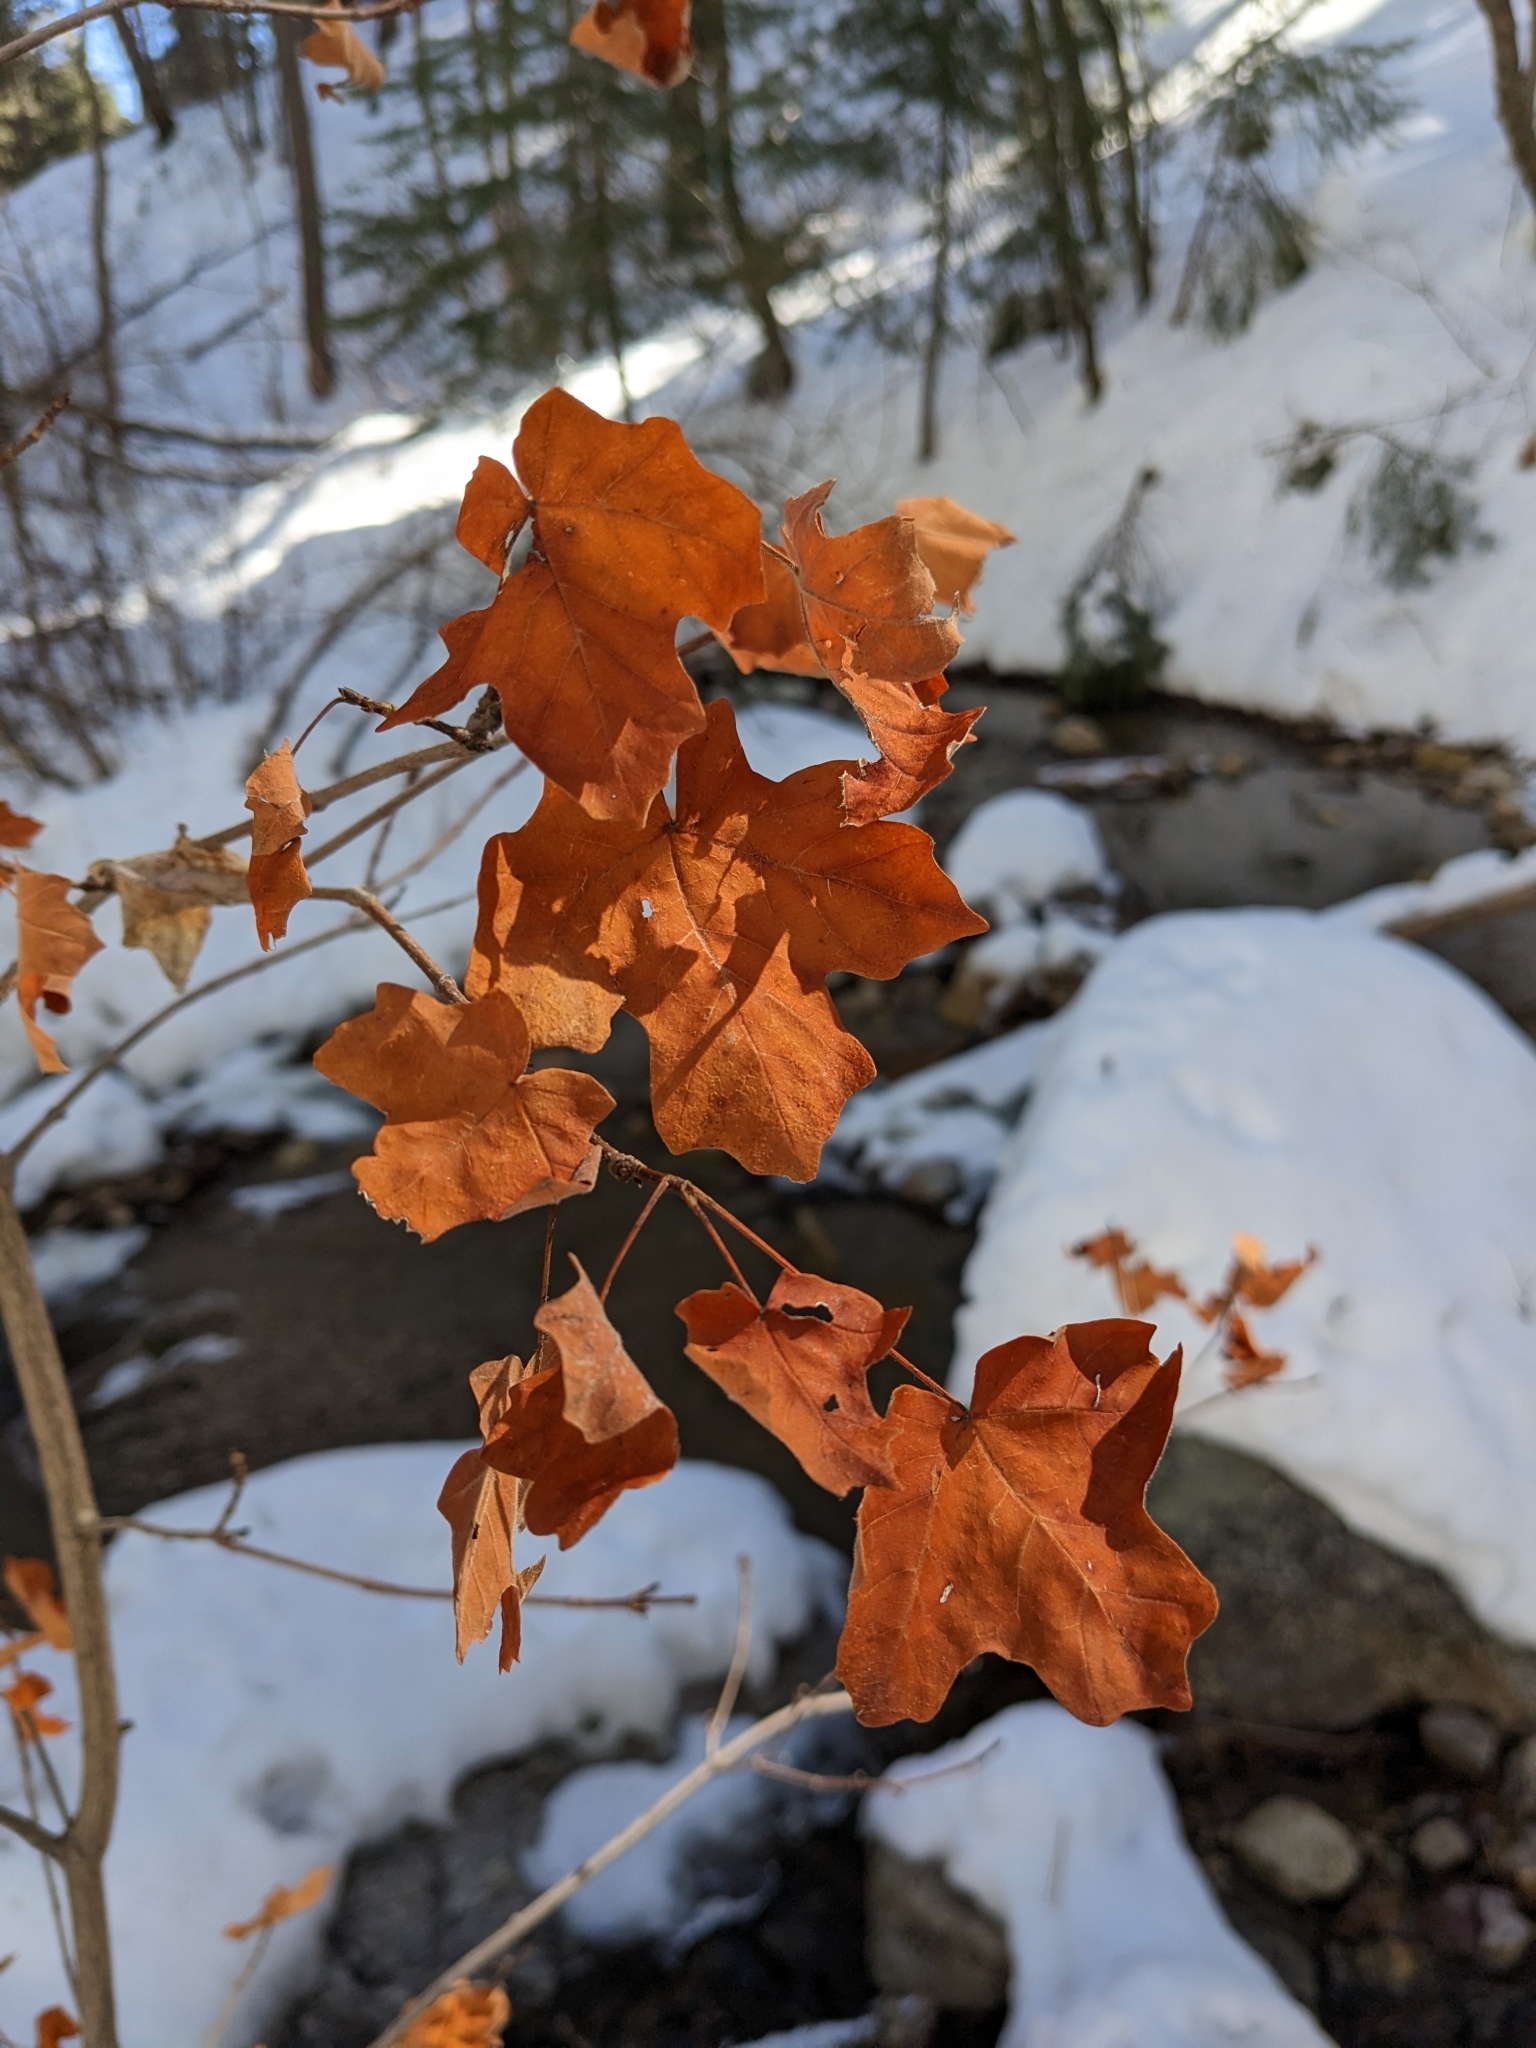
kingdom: Plantae
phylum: Tracheophyta
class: Magnoliopsida
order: Sapindales
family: Sapindaceae
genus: Acer
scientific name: Acer grandidentatum
